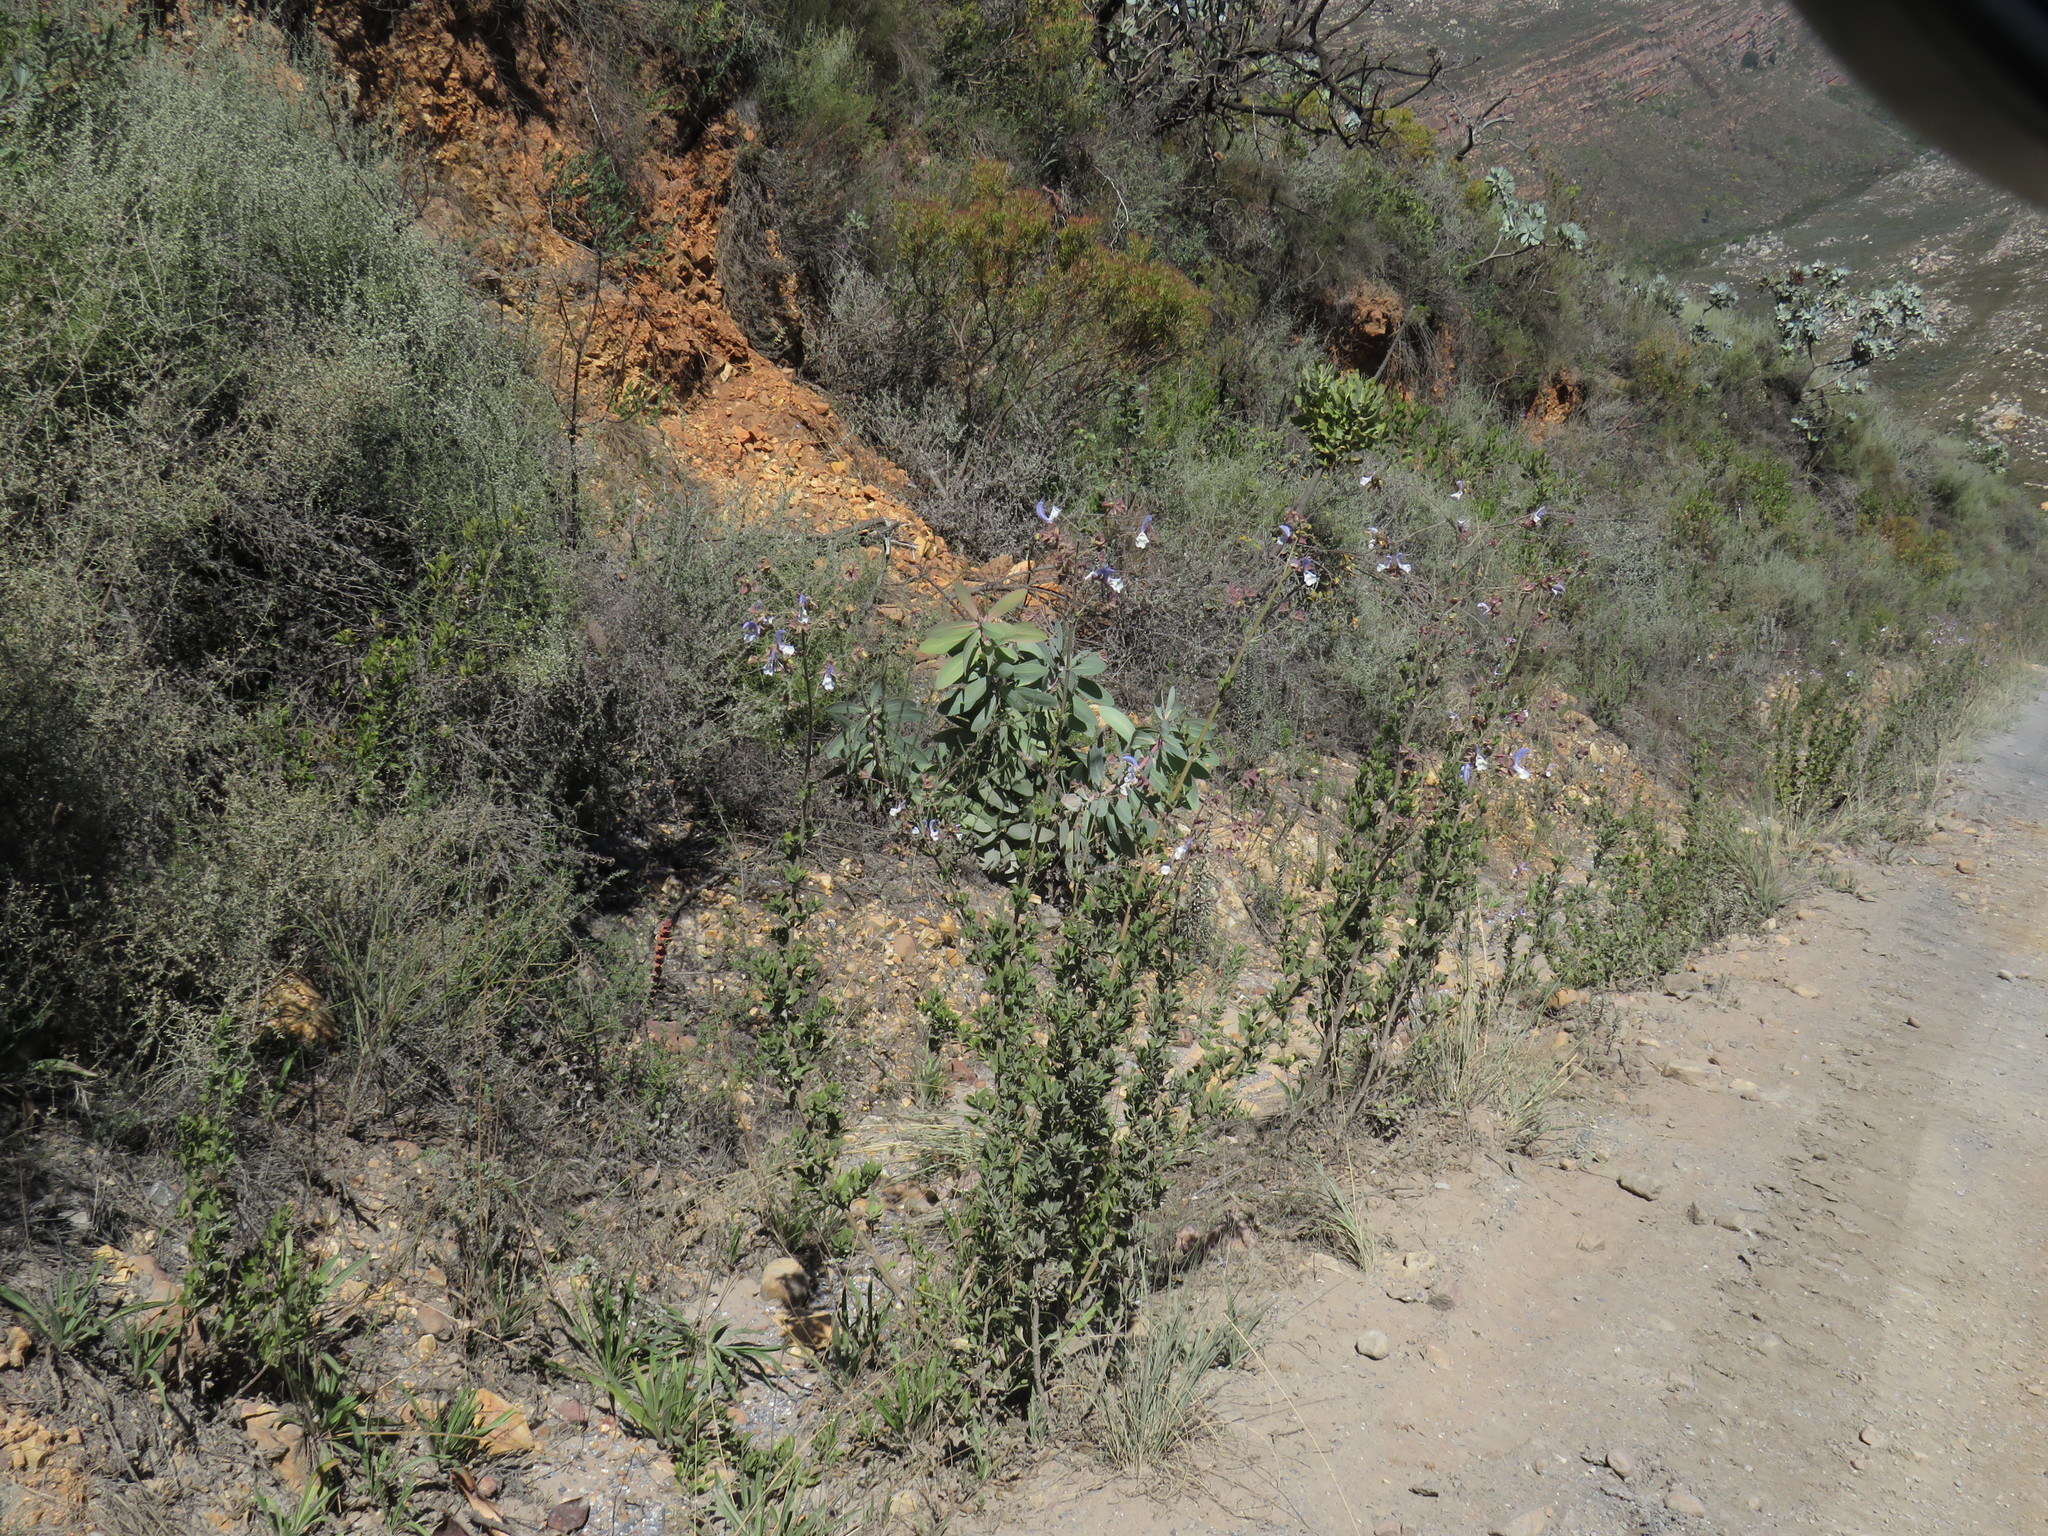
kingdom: Plantae
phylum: Tracheophyta
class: Magnoliopsida
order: Lamiales
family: Lamiaceae
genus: Salvia
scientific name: Salvia chamelaeagnea
